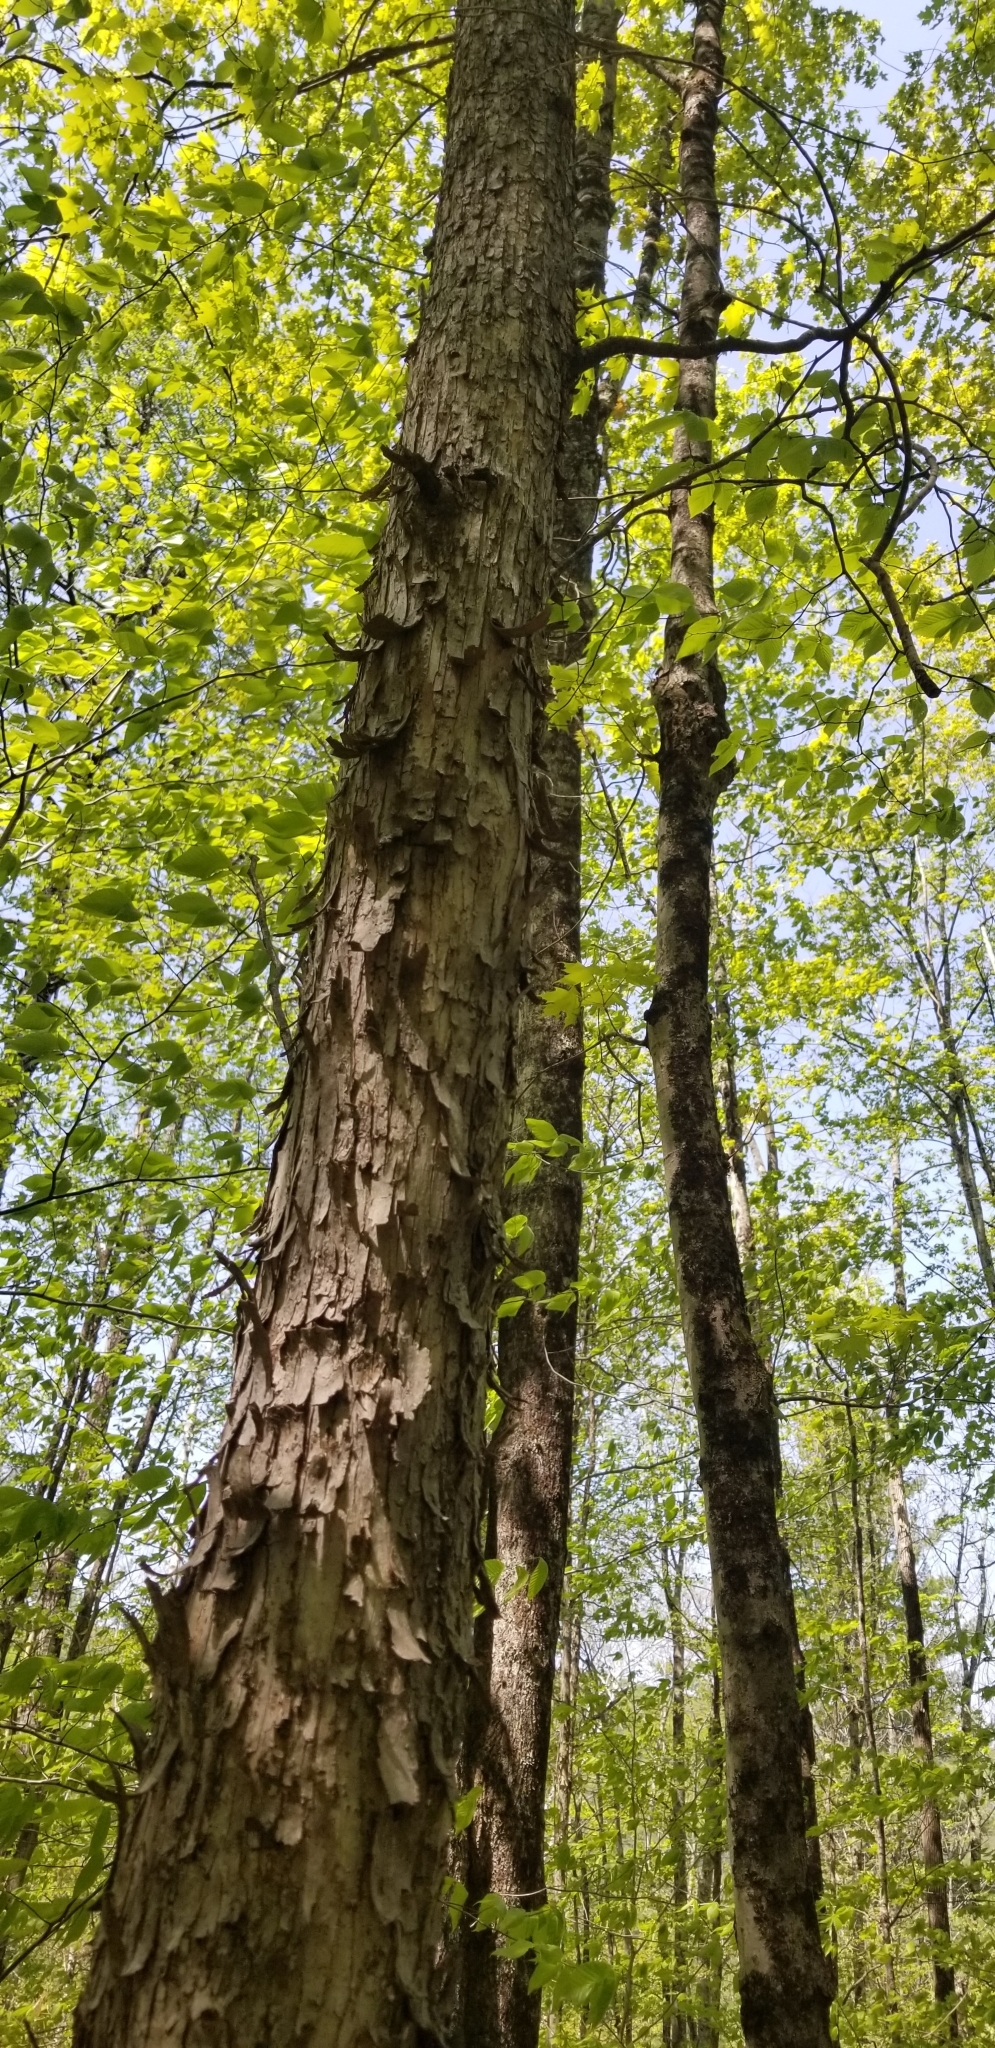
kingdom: Plantae
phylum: Tracheophyta
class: Magnoliopsida
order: Fagales
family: Betulaceae
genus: Ostrya
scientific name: Ostrya virginiana
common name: Ironwood
